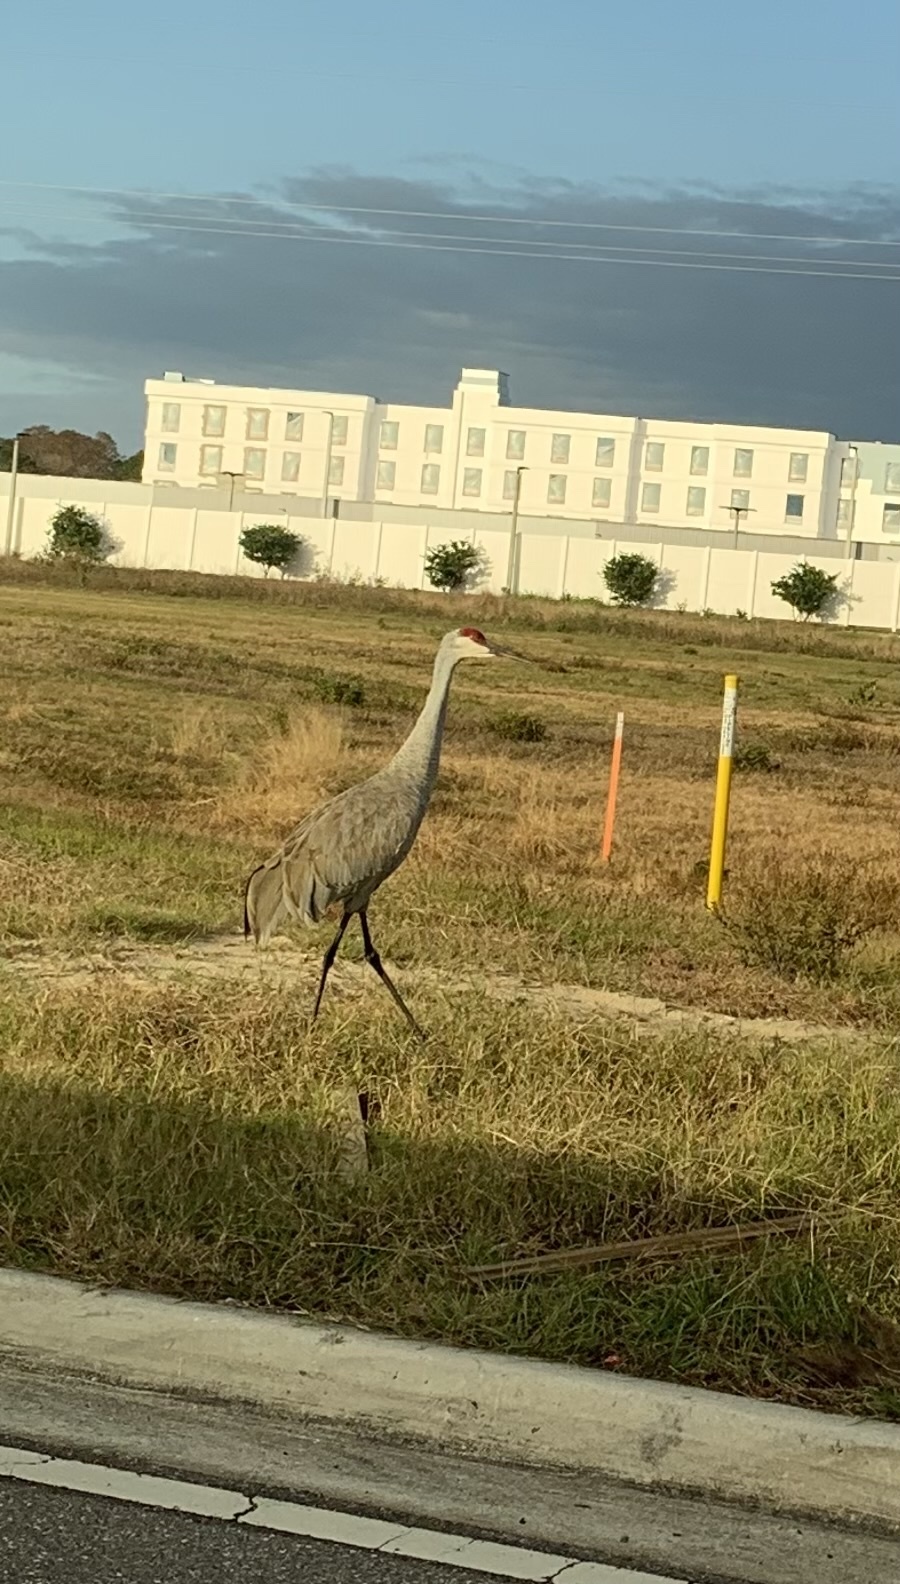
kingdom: Animalia
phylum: Chordata
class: Aves
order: Gruiformes
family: Gruidae
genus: Grus
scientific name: Grus canadensis
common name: Sandhill crane
